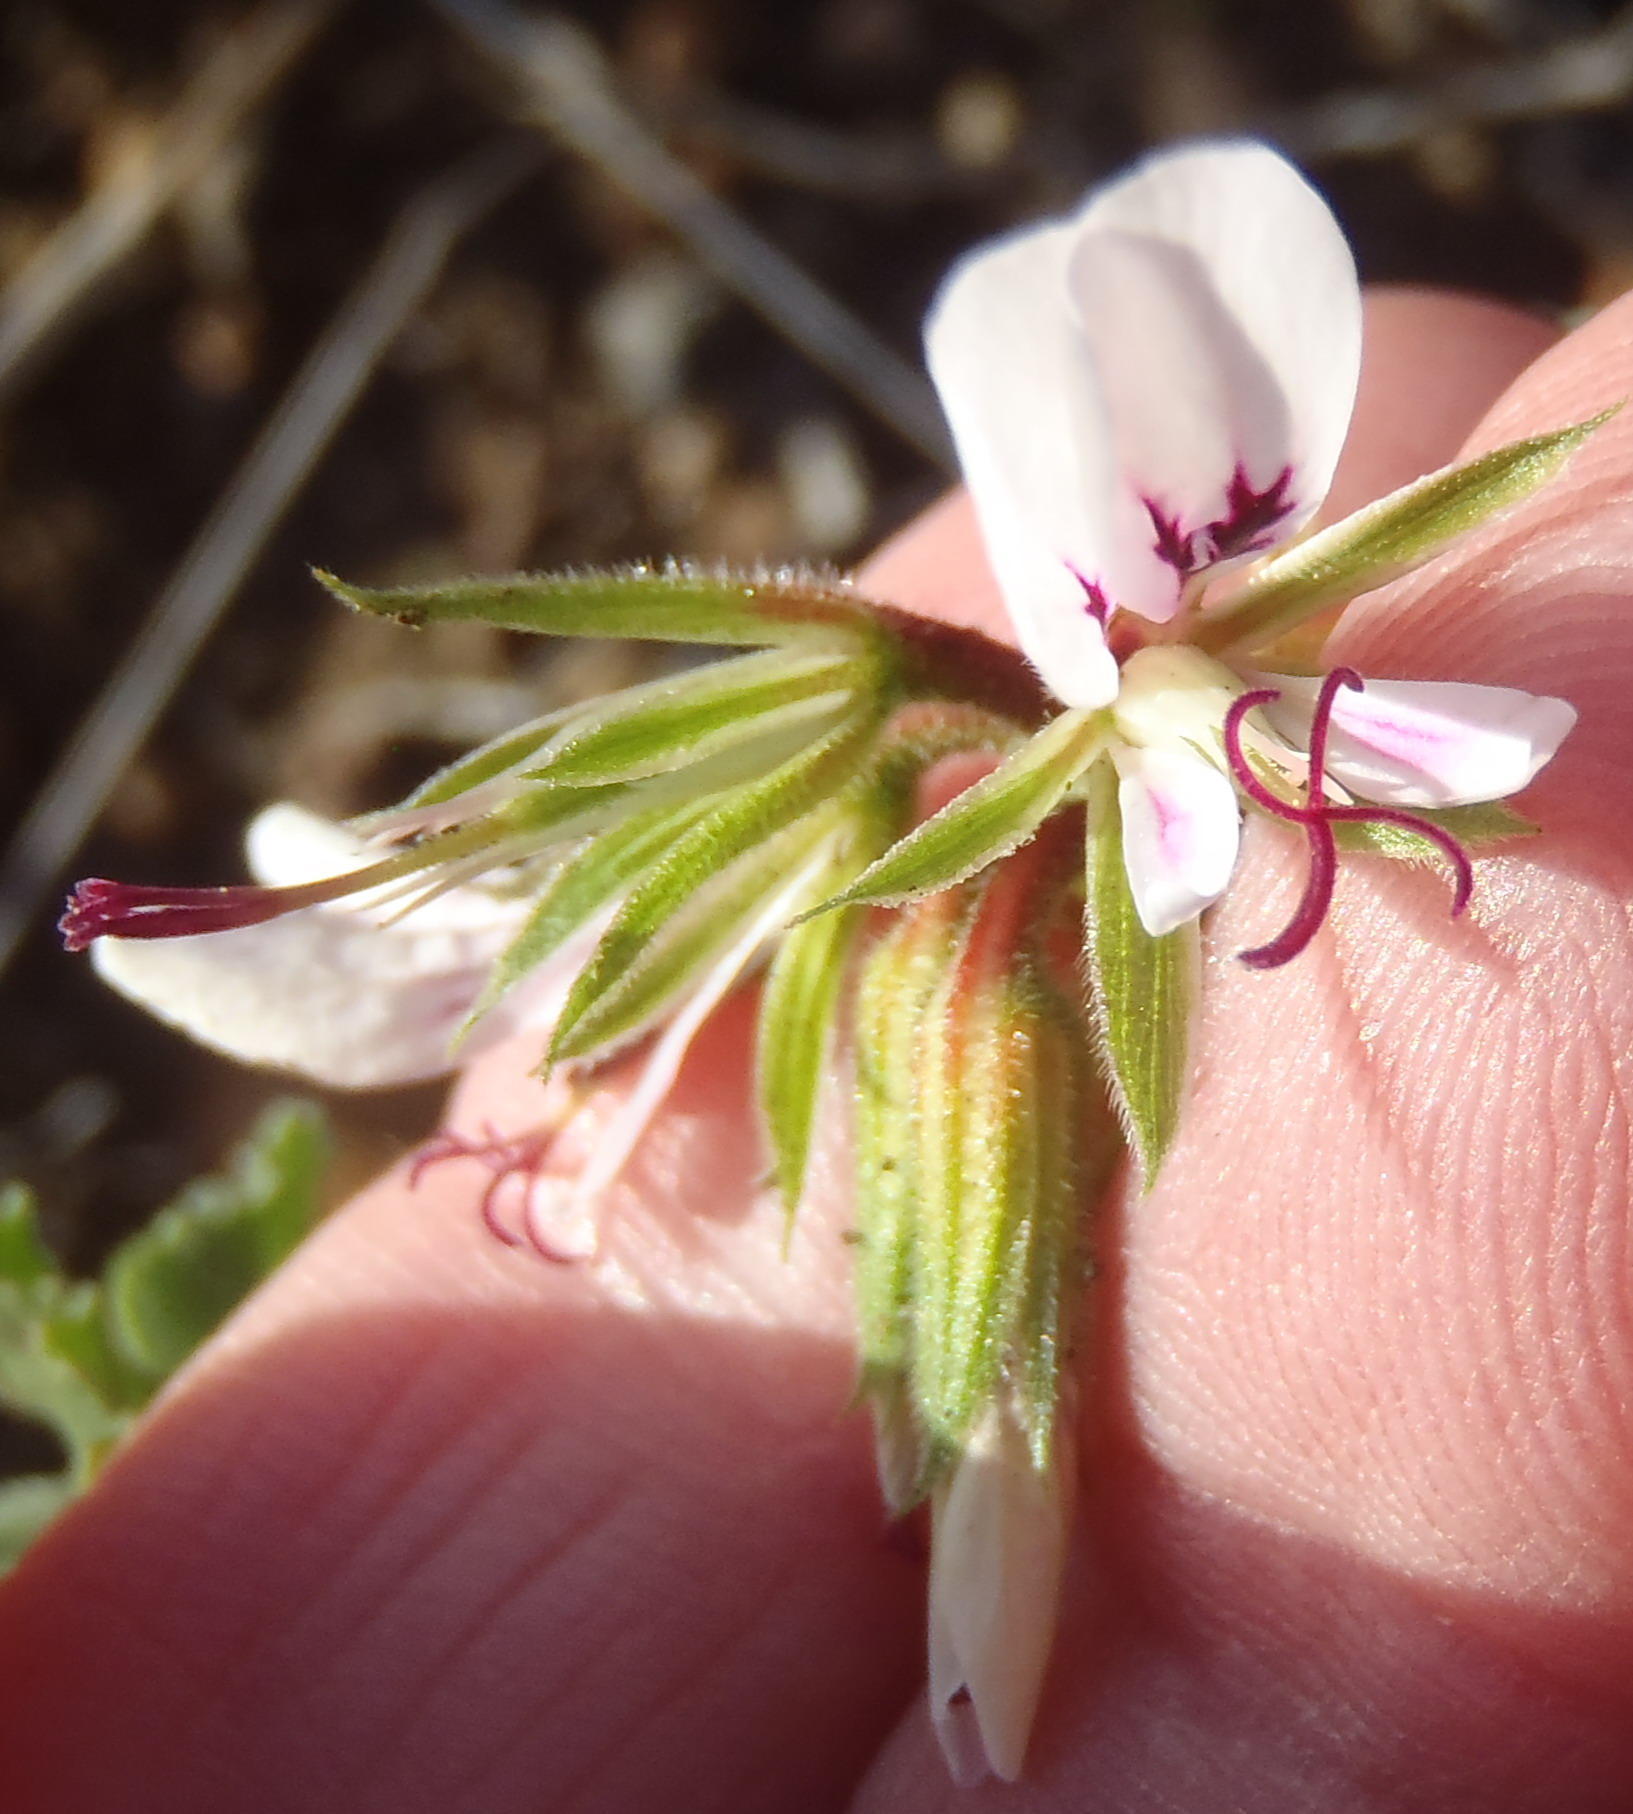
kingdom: Plantae
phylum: Tracheophyta
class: Magnoliopsida
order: Geraniales
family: Geraniaceae
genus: Pelargonium
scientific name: Pelargonium candicans
